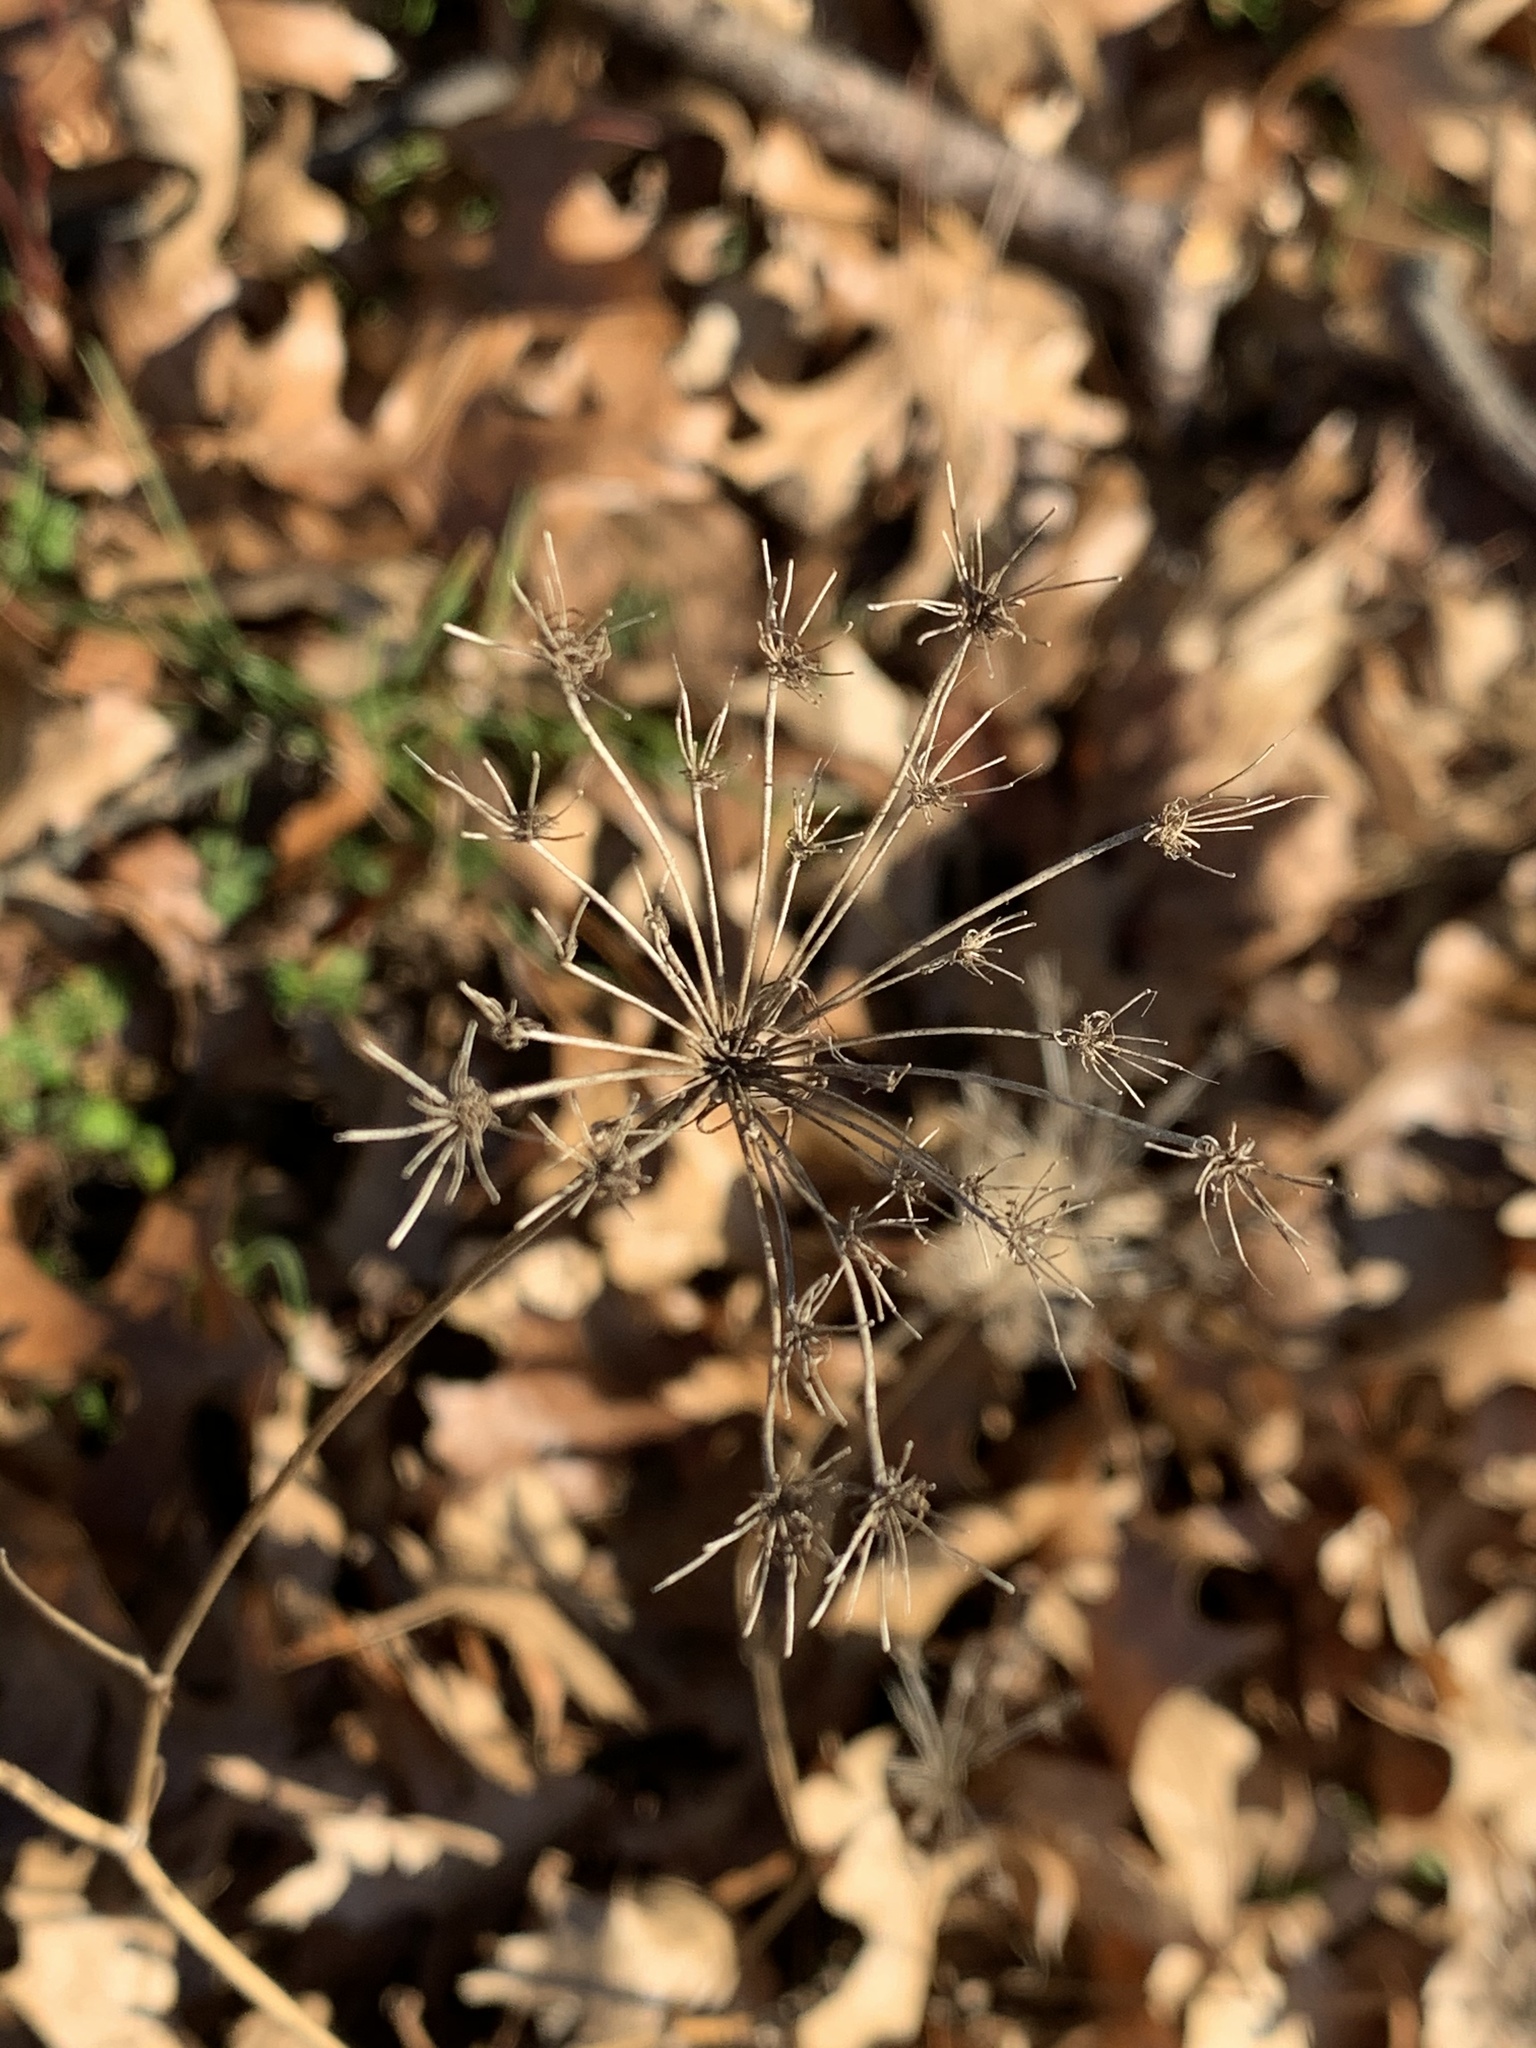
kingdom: Plantae
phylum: Tracheophyta
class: Magnoliopsida
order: Apiales
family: Apiaceae
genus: Daucus
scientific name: Daucus carota
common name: Wild carrot
